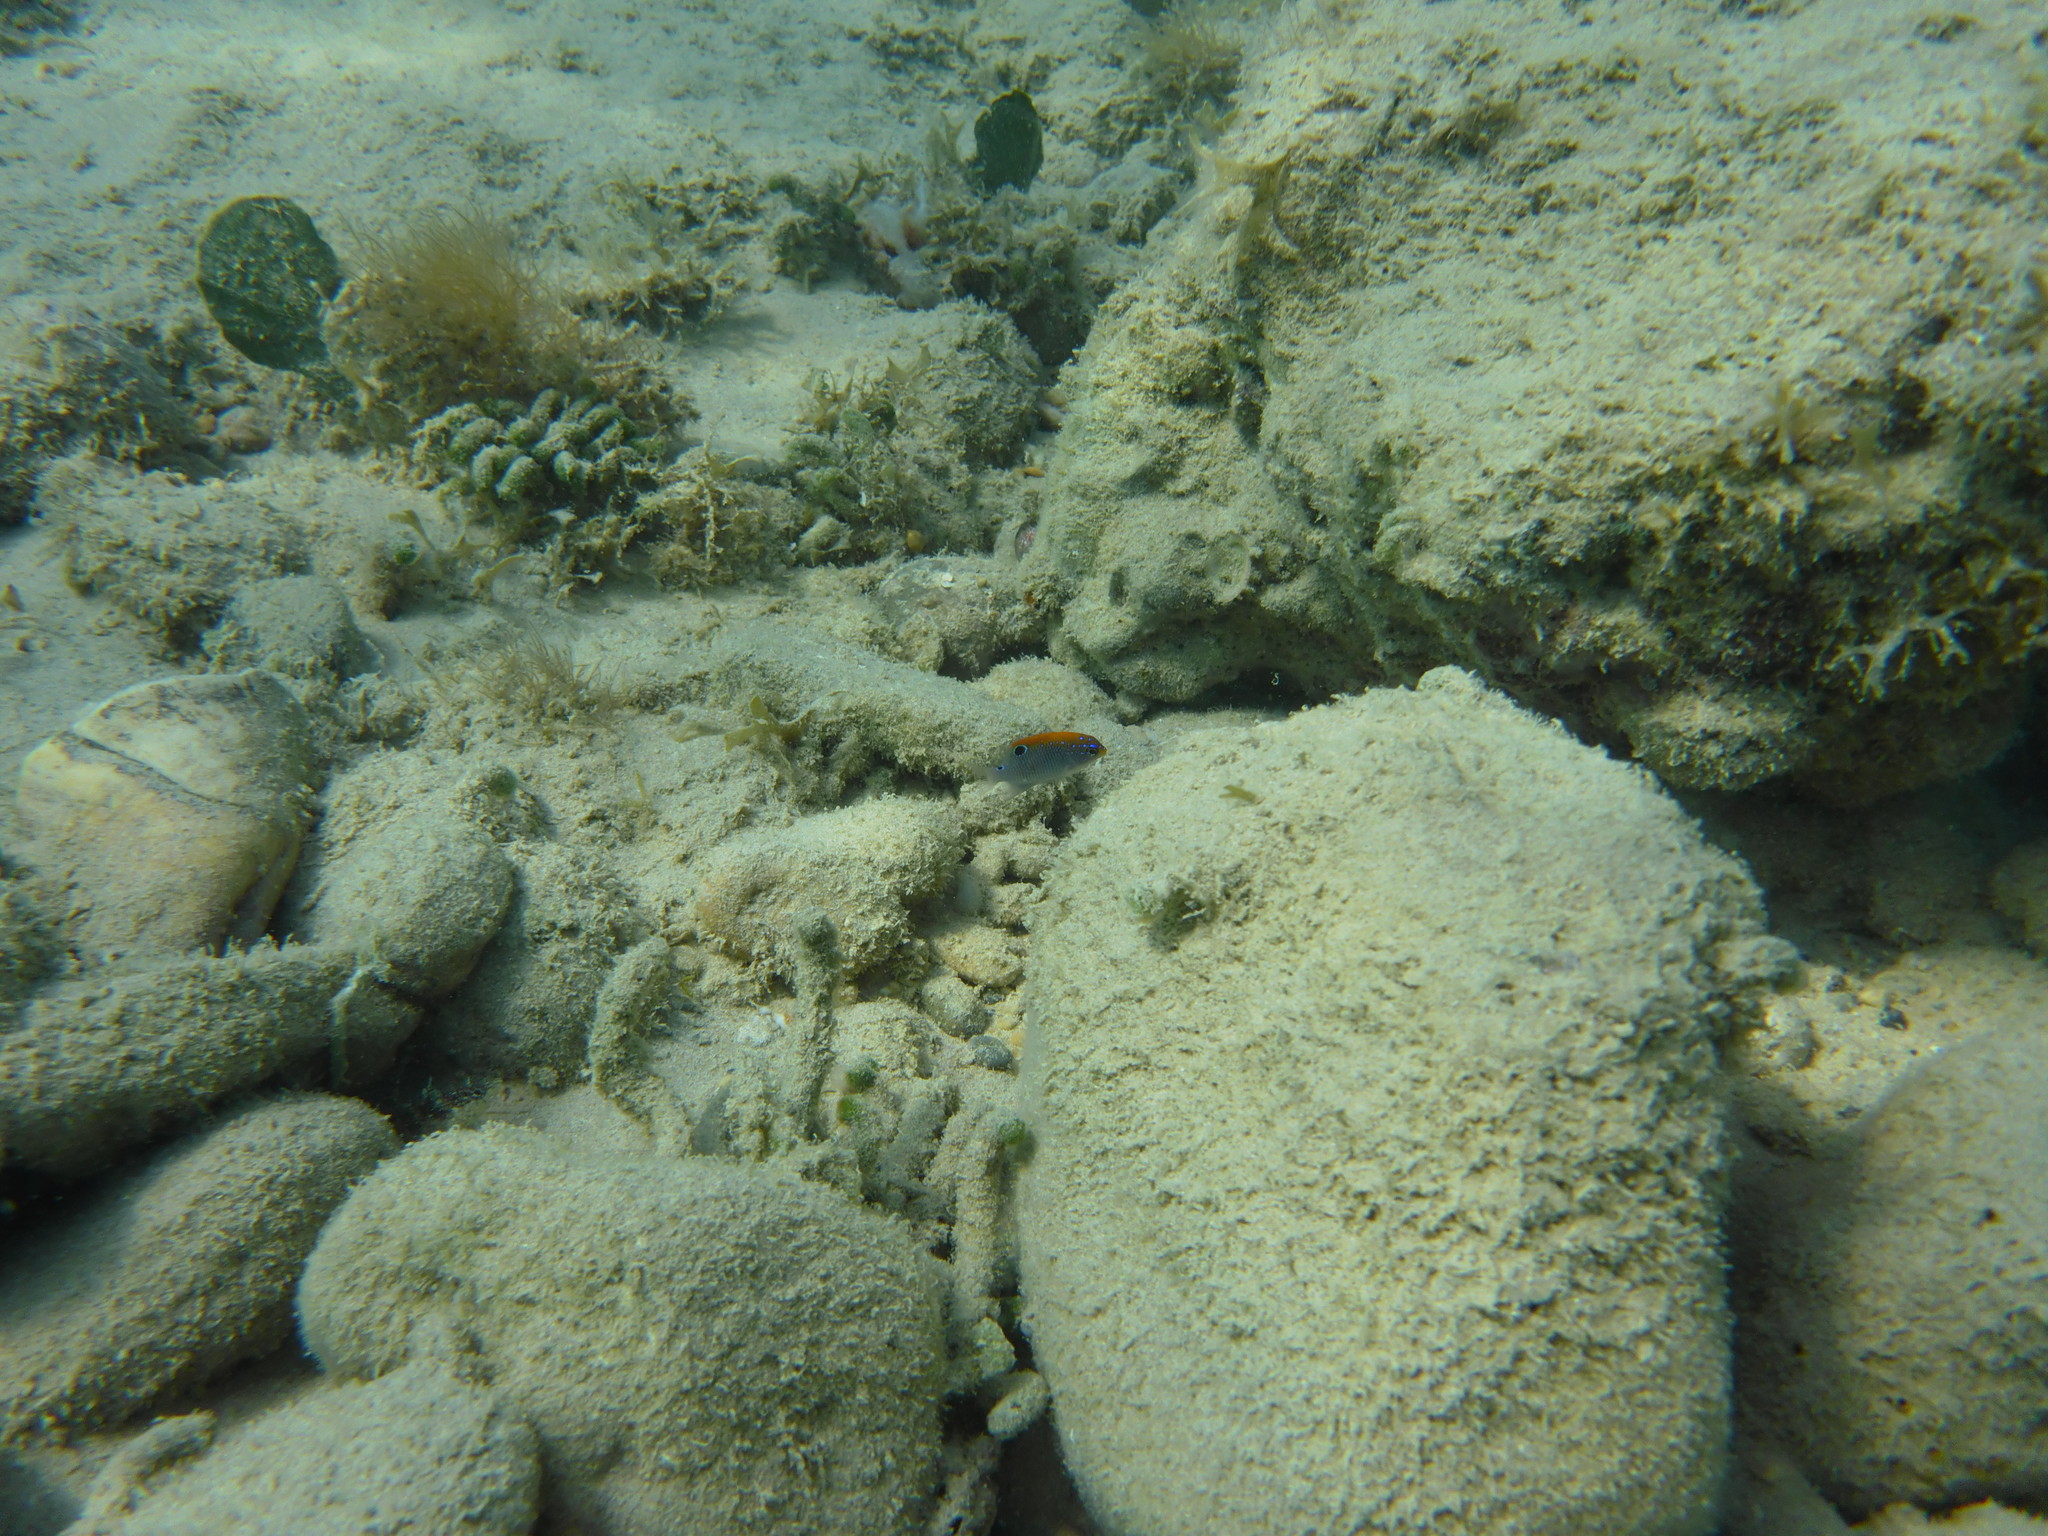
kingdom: Animalia
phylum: Chordata
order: Perciformes
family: Pomacentridae
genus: Stegastes
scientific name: Stegastes adustus
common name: Dusky damselfish
